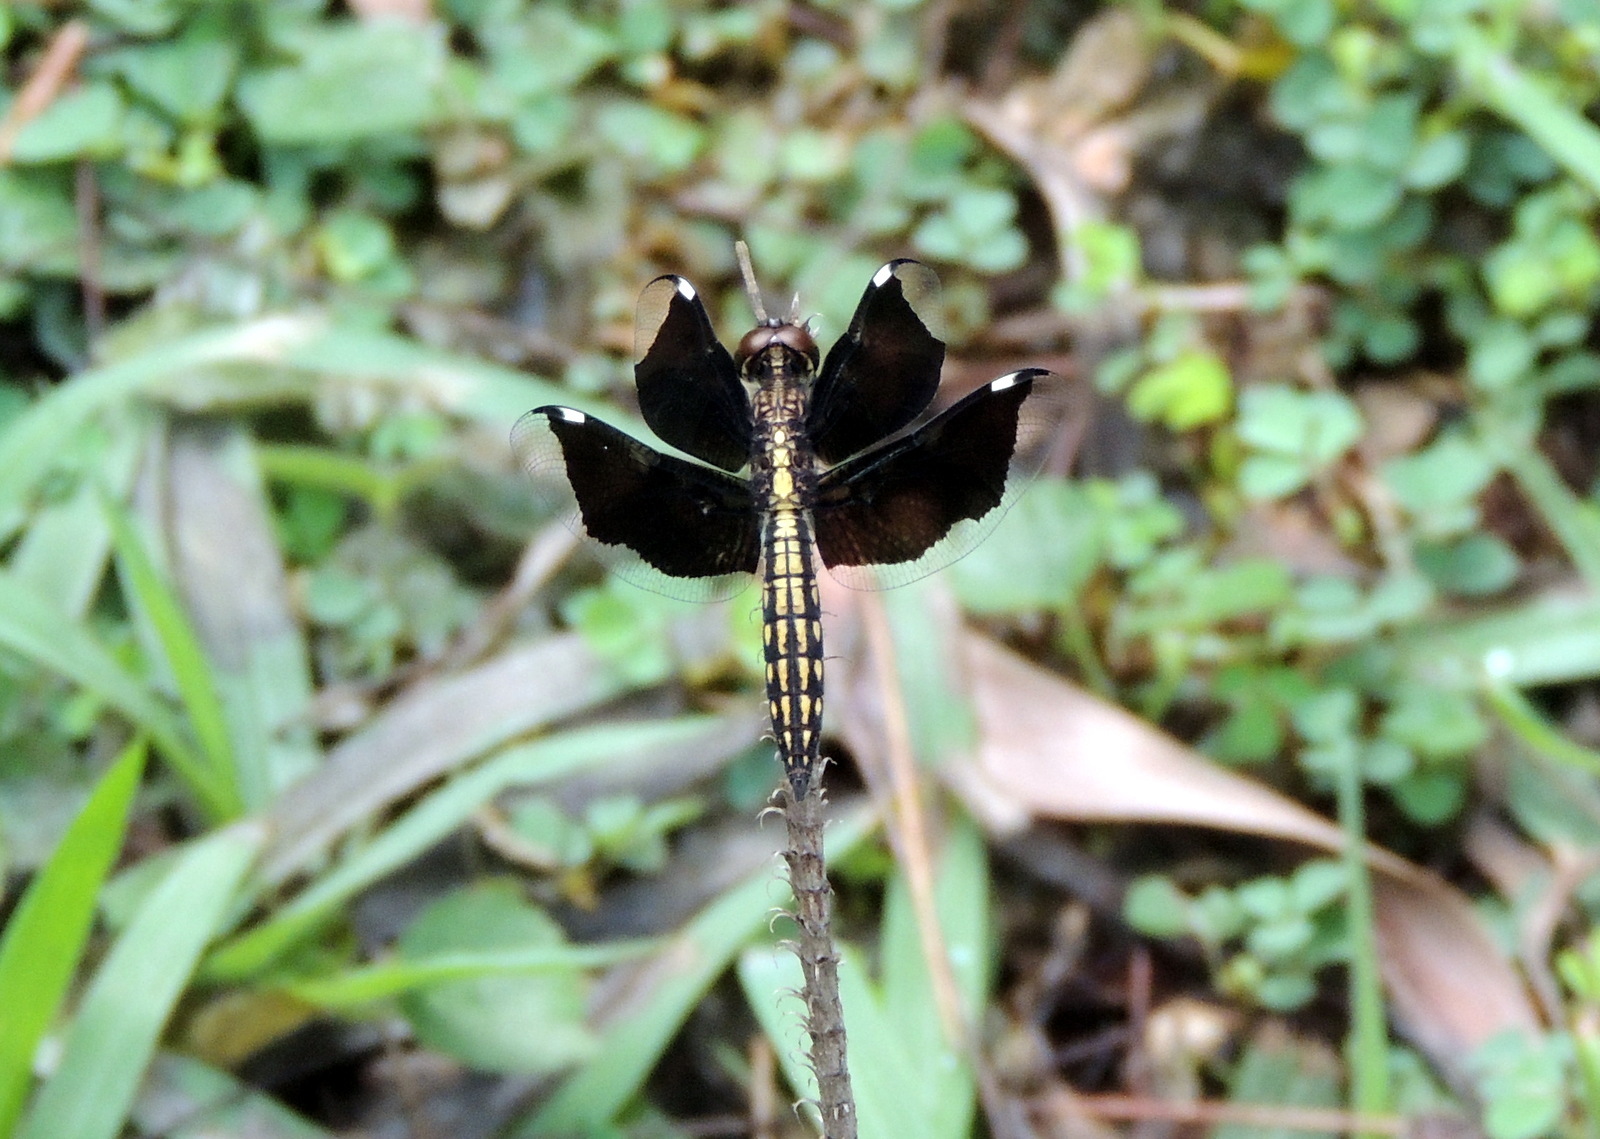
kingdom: Animalia
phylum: Arthropoda
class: Insecta
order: Odonata
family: Libellulidae
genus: Palpopleura
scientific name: Palpopleura lucia
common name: Lucia widow
